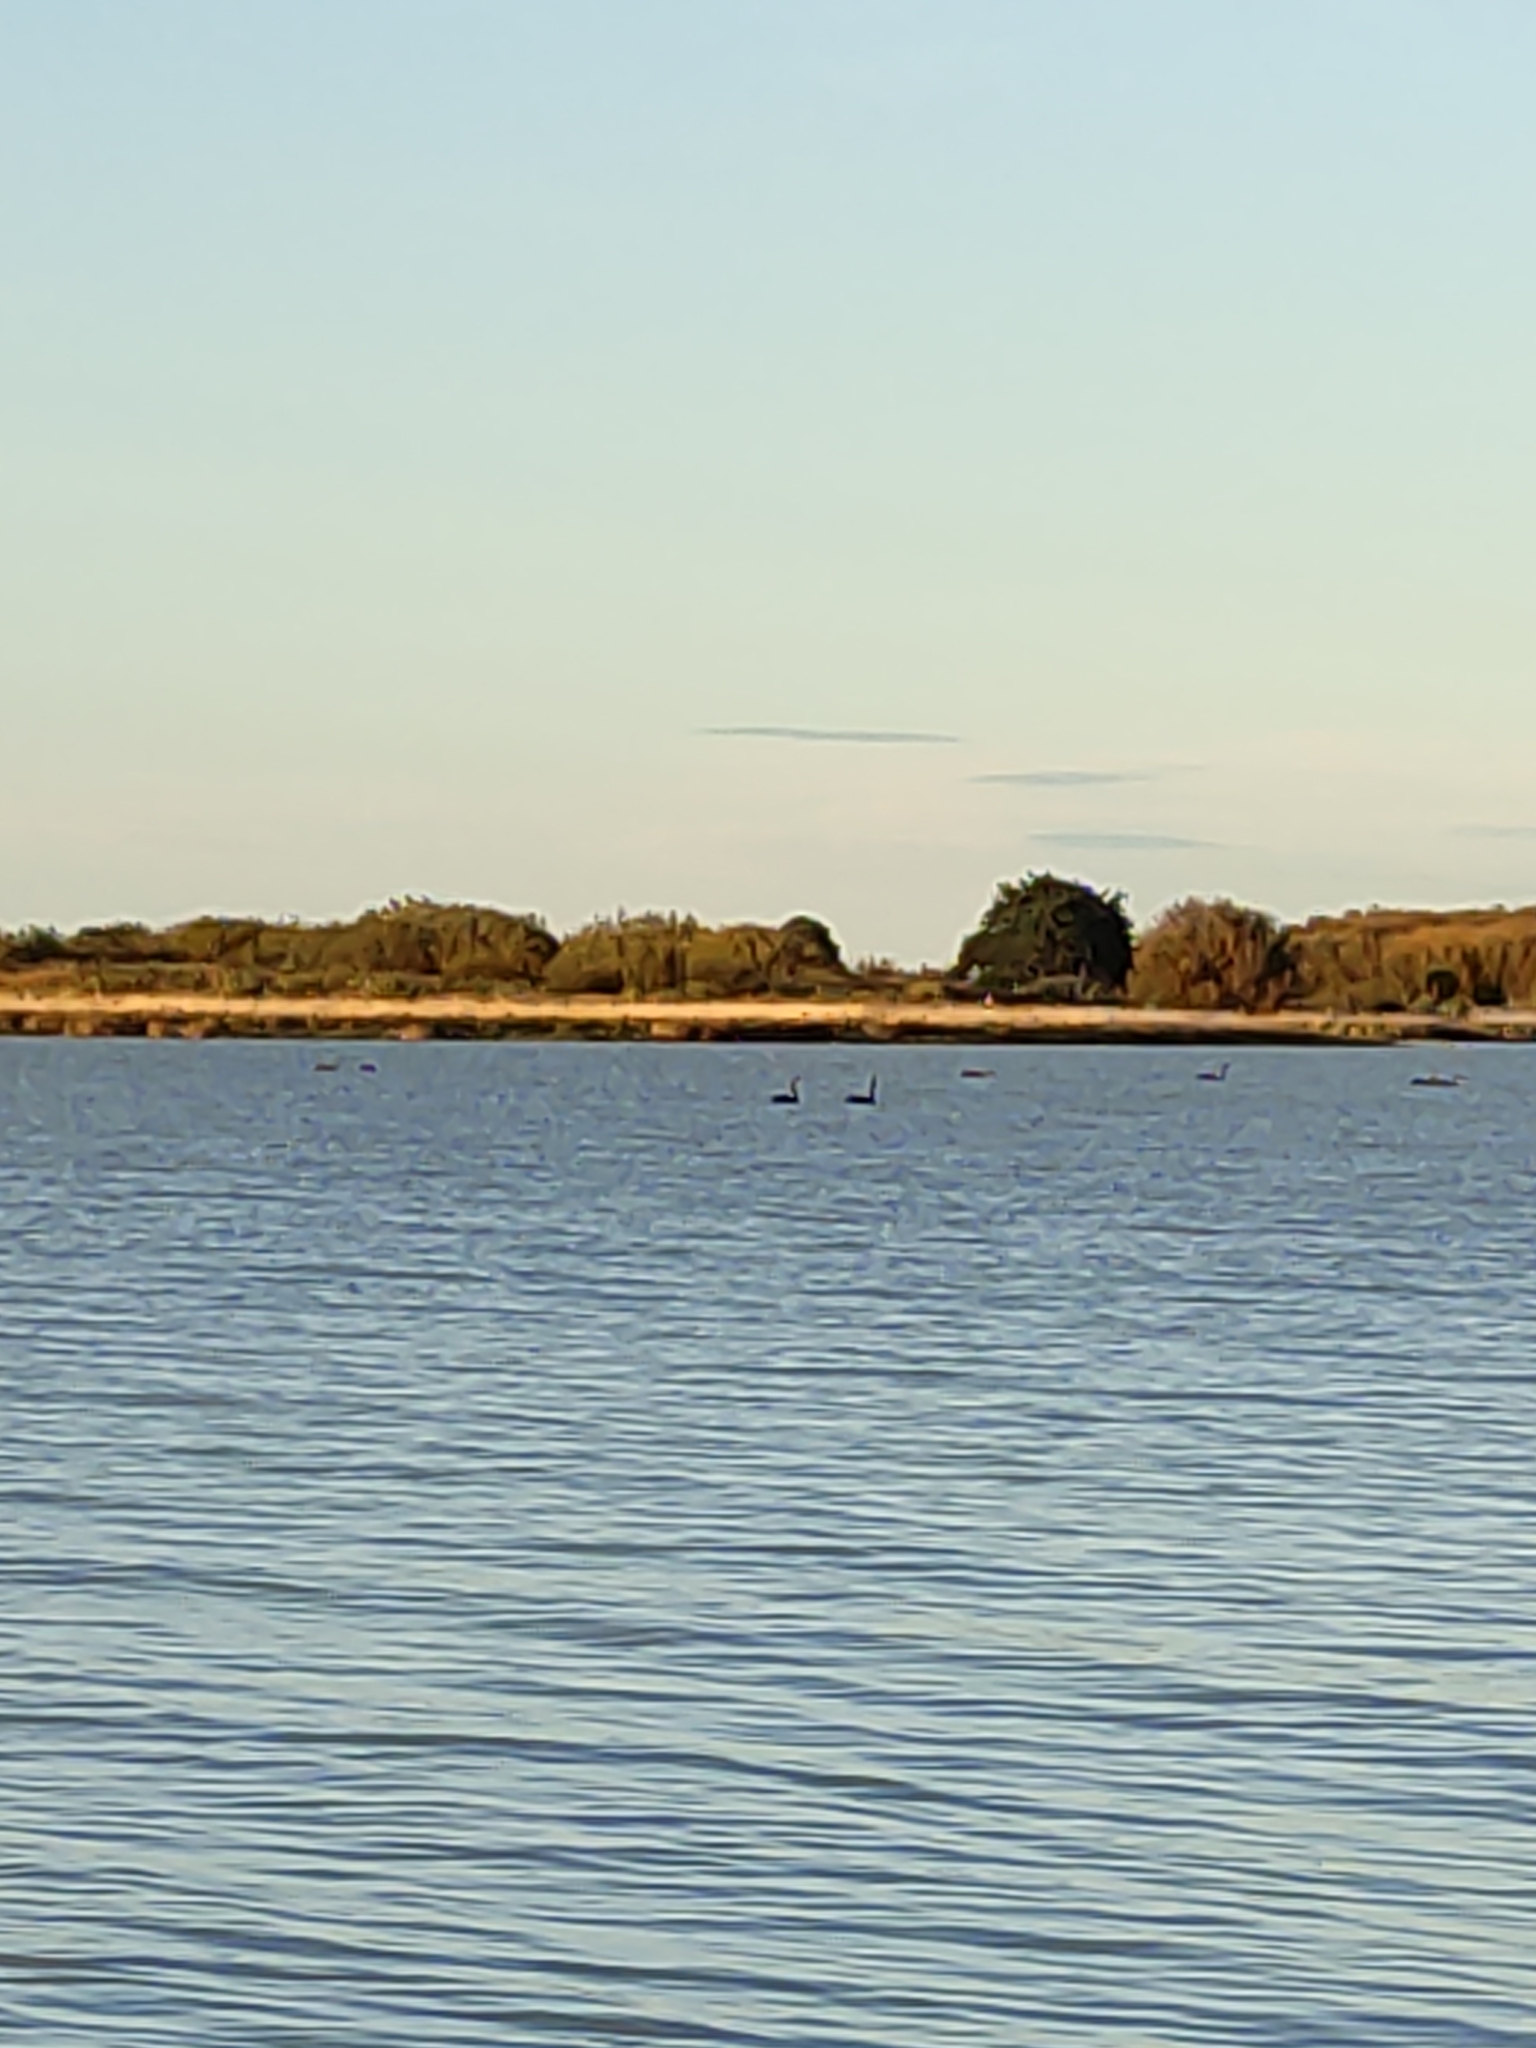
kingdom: Animalia
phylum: Chordata
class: Aves
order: Anseriformes
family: Anatidae
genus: Cygnus
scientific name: Cygnus atratus
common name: Black swan
